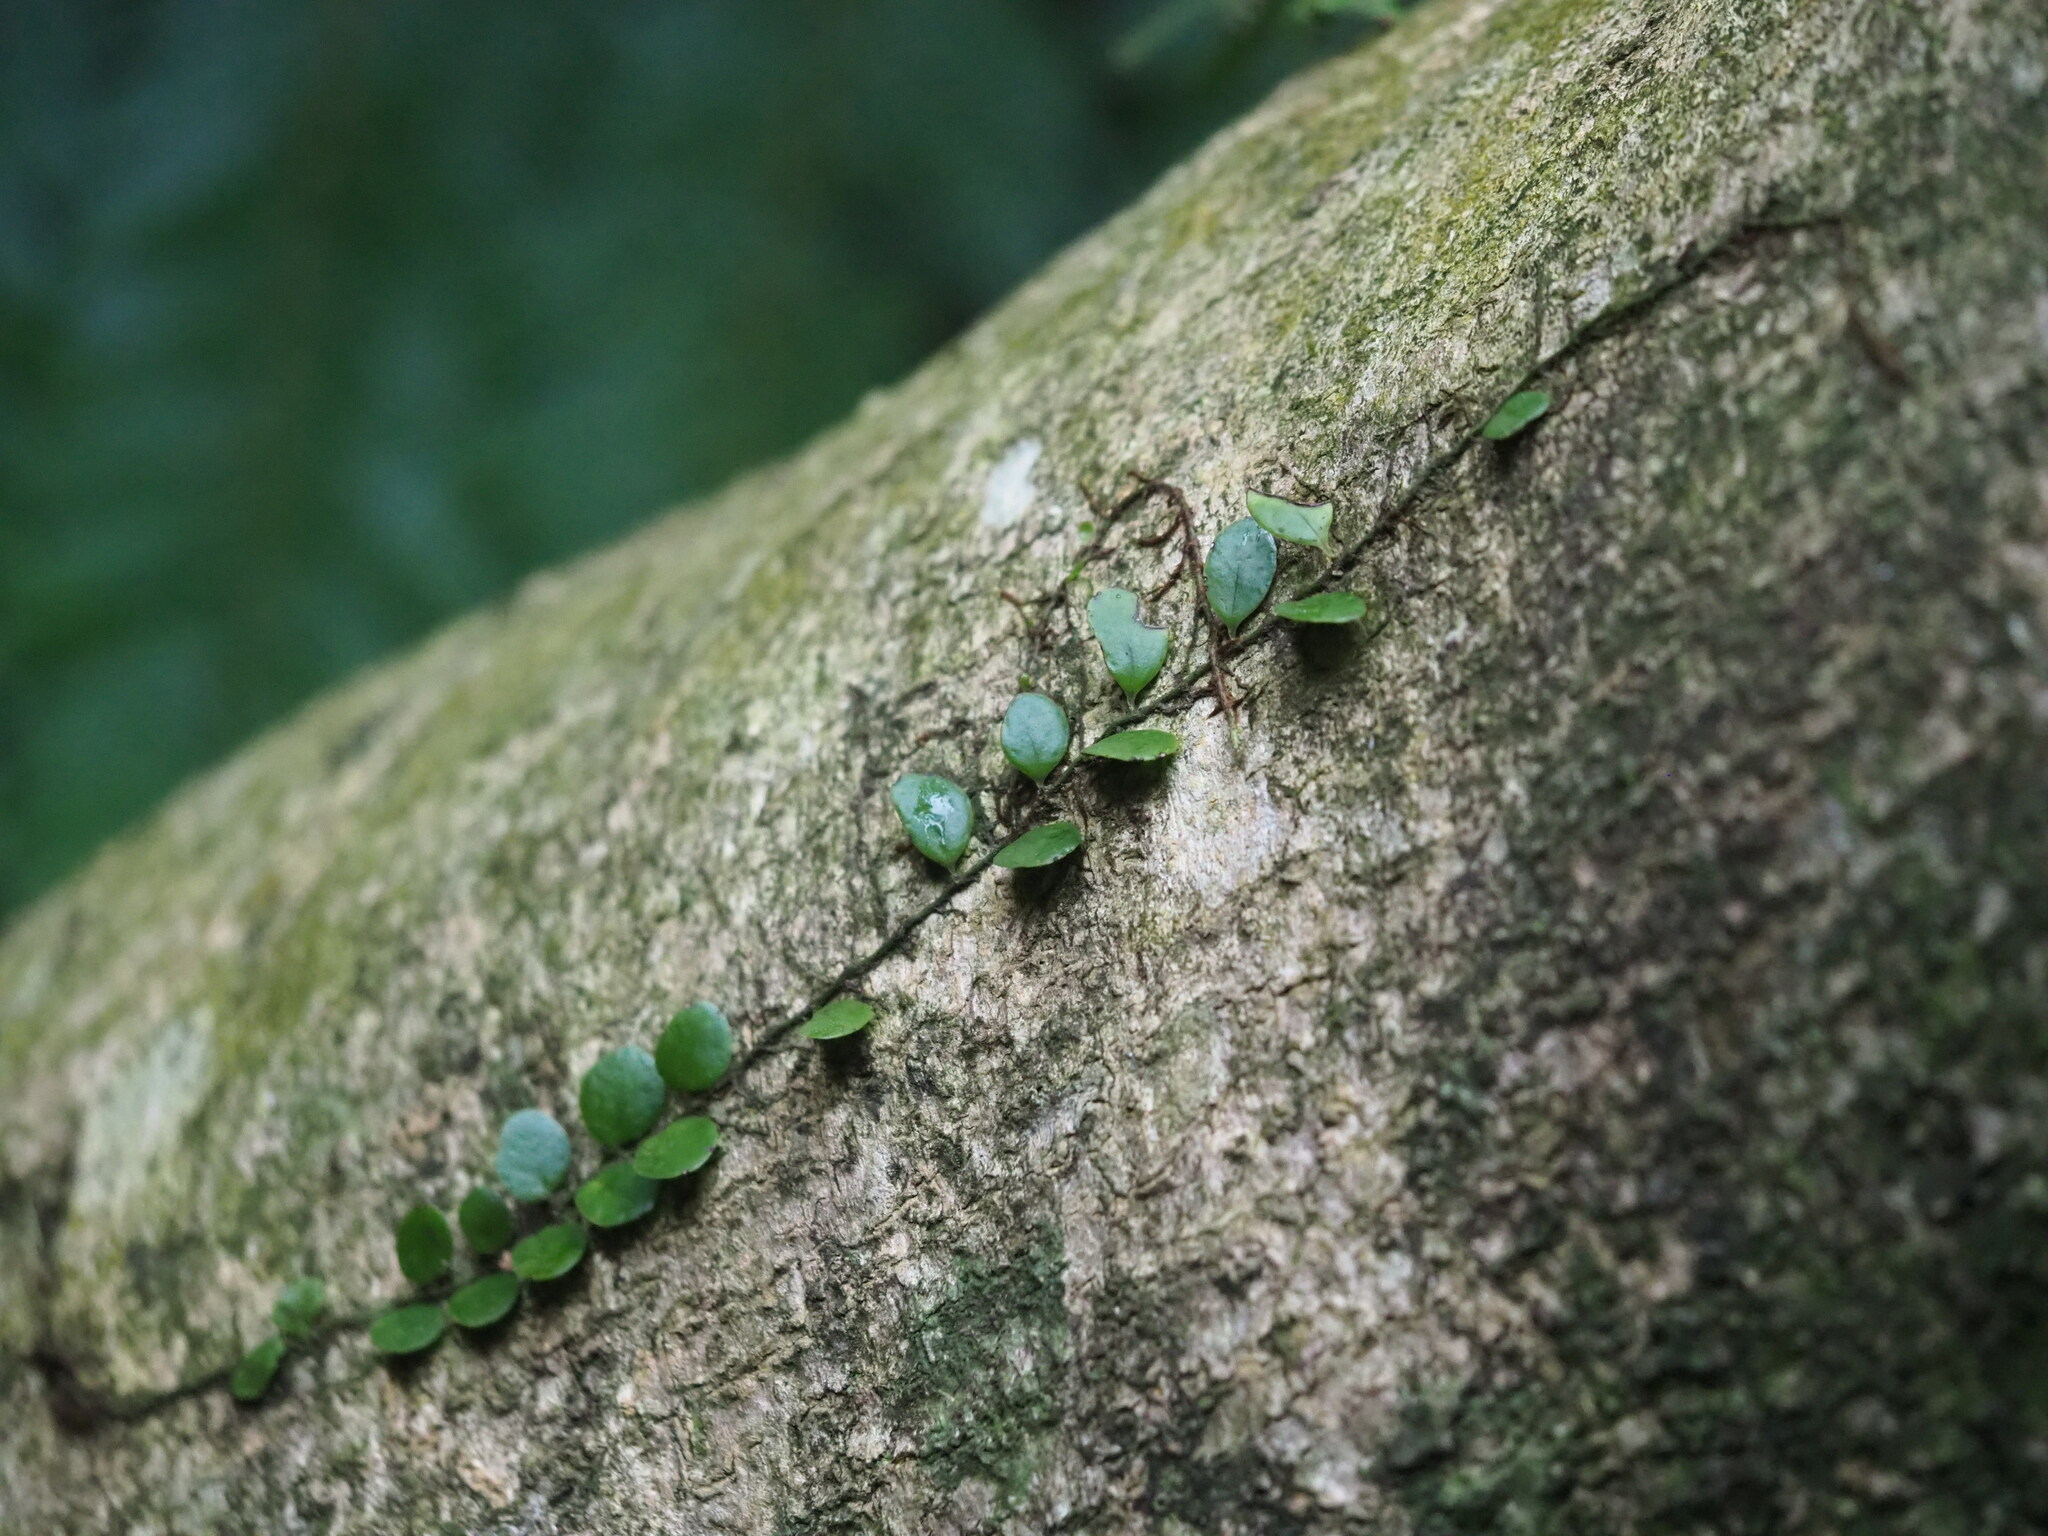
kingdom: Plantae
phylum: Tracheophyta
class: Polypodiopsida
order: Polypodiales
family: Polypodiaceae
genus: Lepisorus
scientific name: Lepisorus microphyllus
